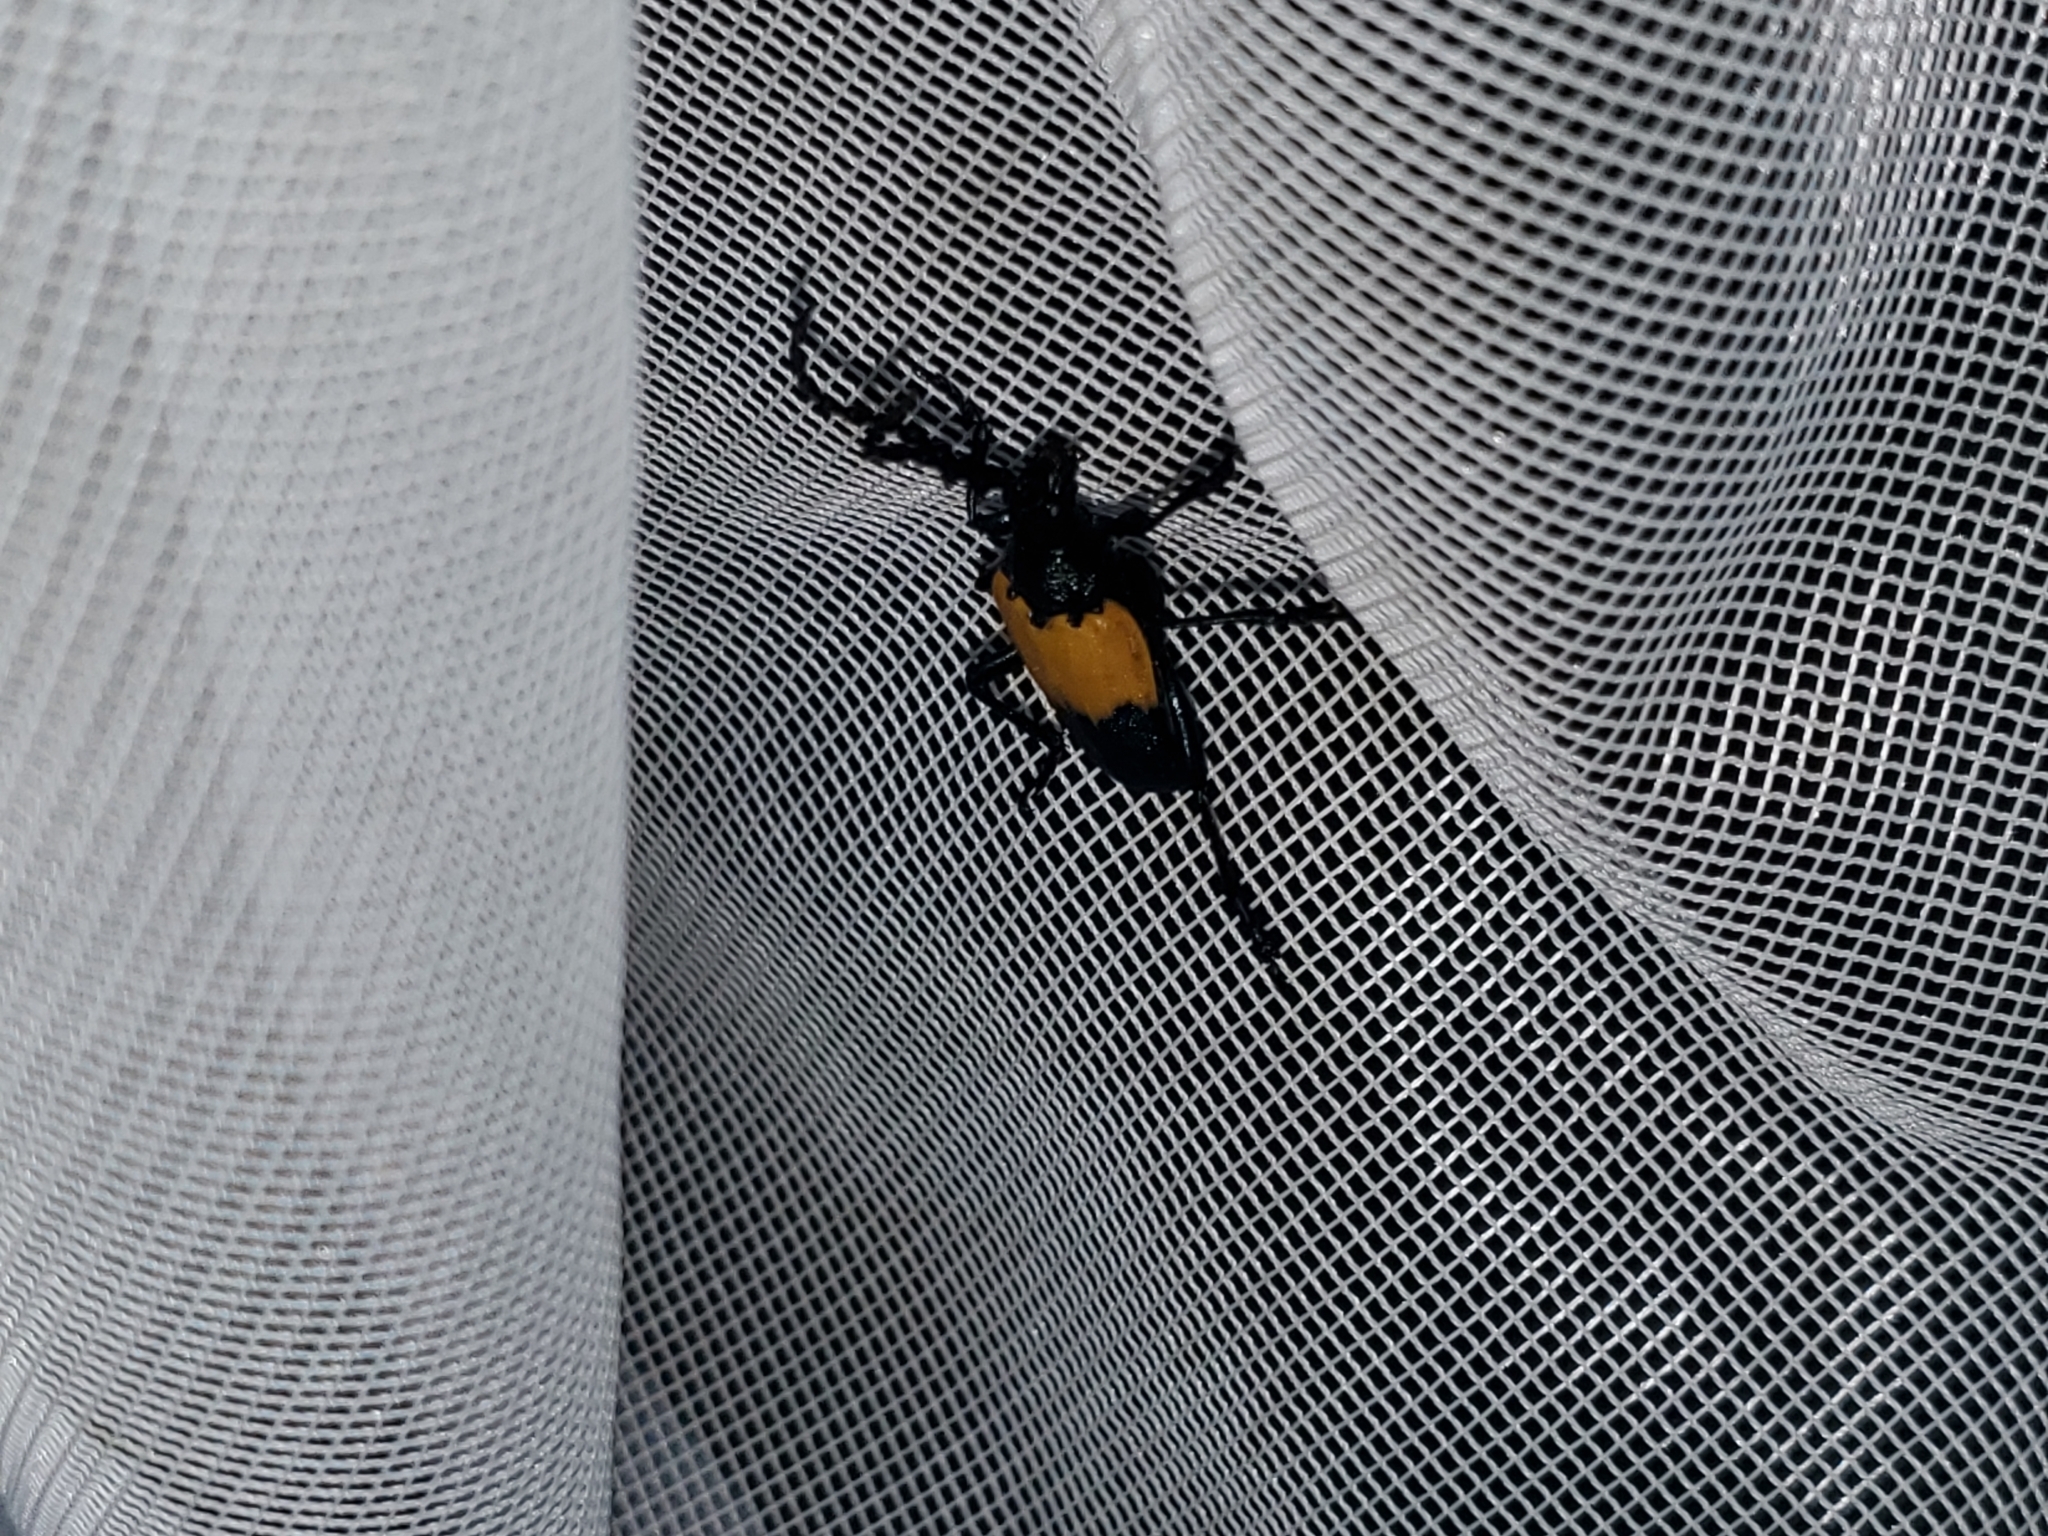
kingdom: Animalia
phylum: Arthropoda
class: Insecta
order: Coleoptera
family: Cerambycidae
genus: Desmocerus
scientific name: Desmocerus palliatus
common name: Eastern elderberry borer
